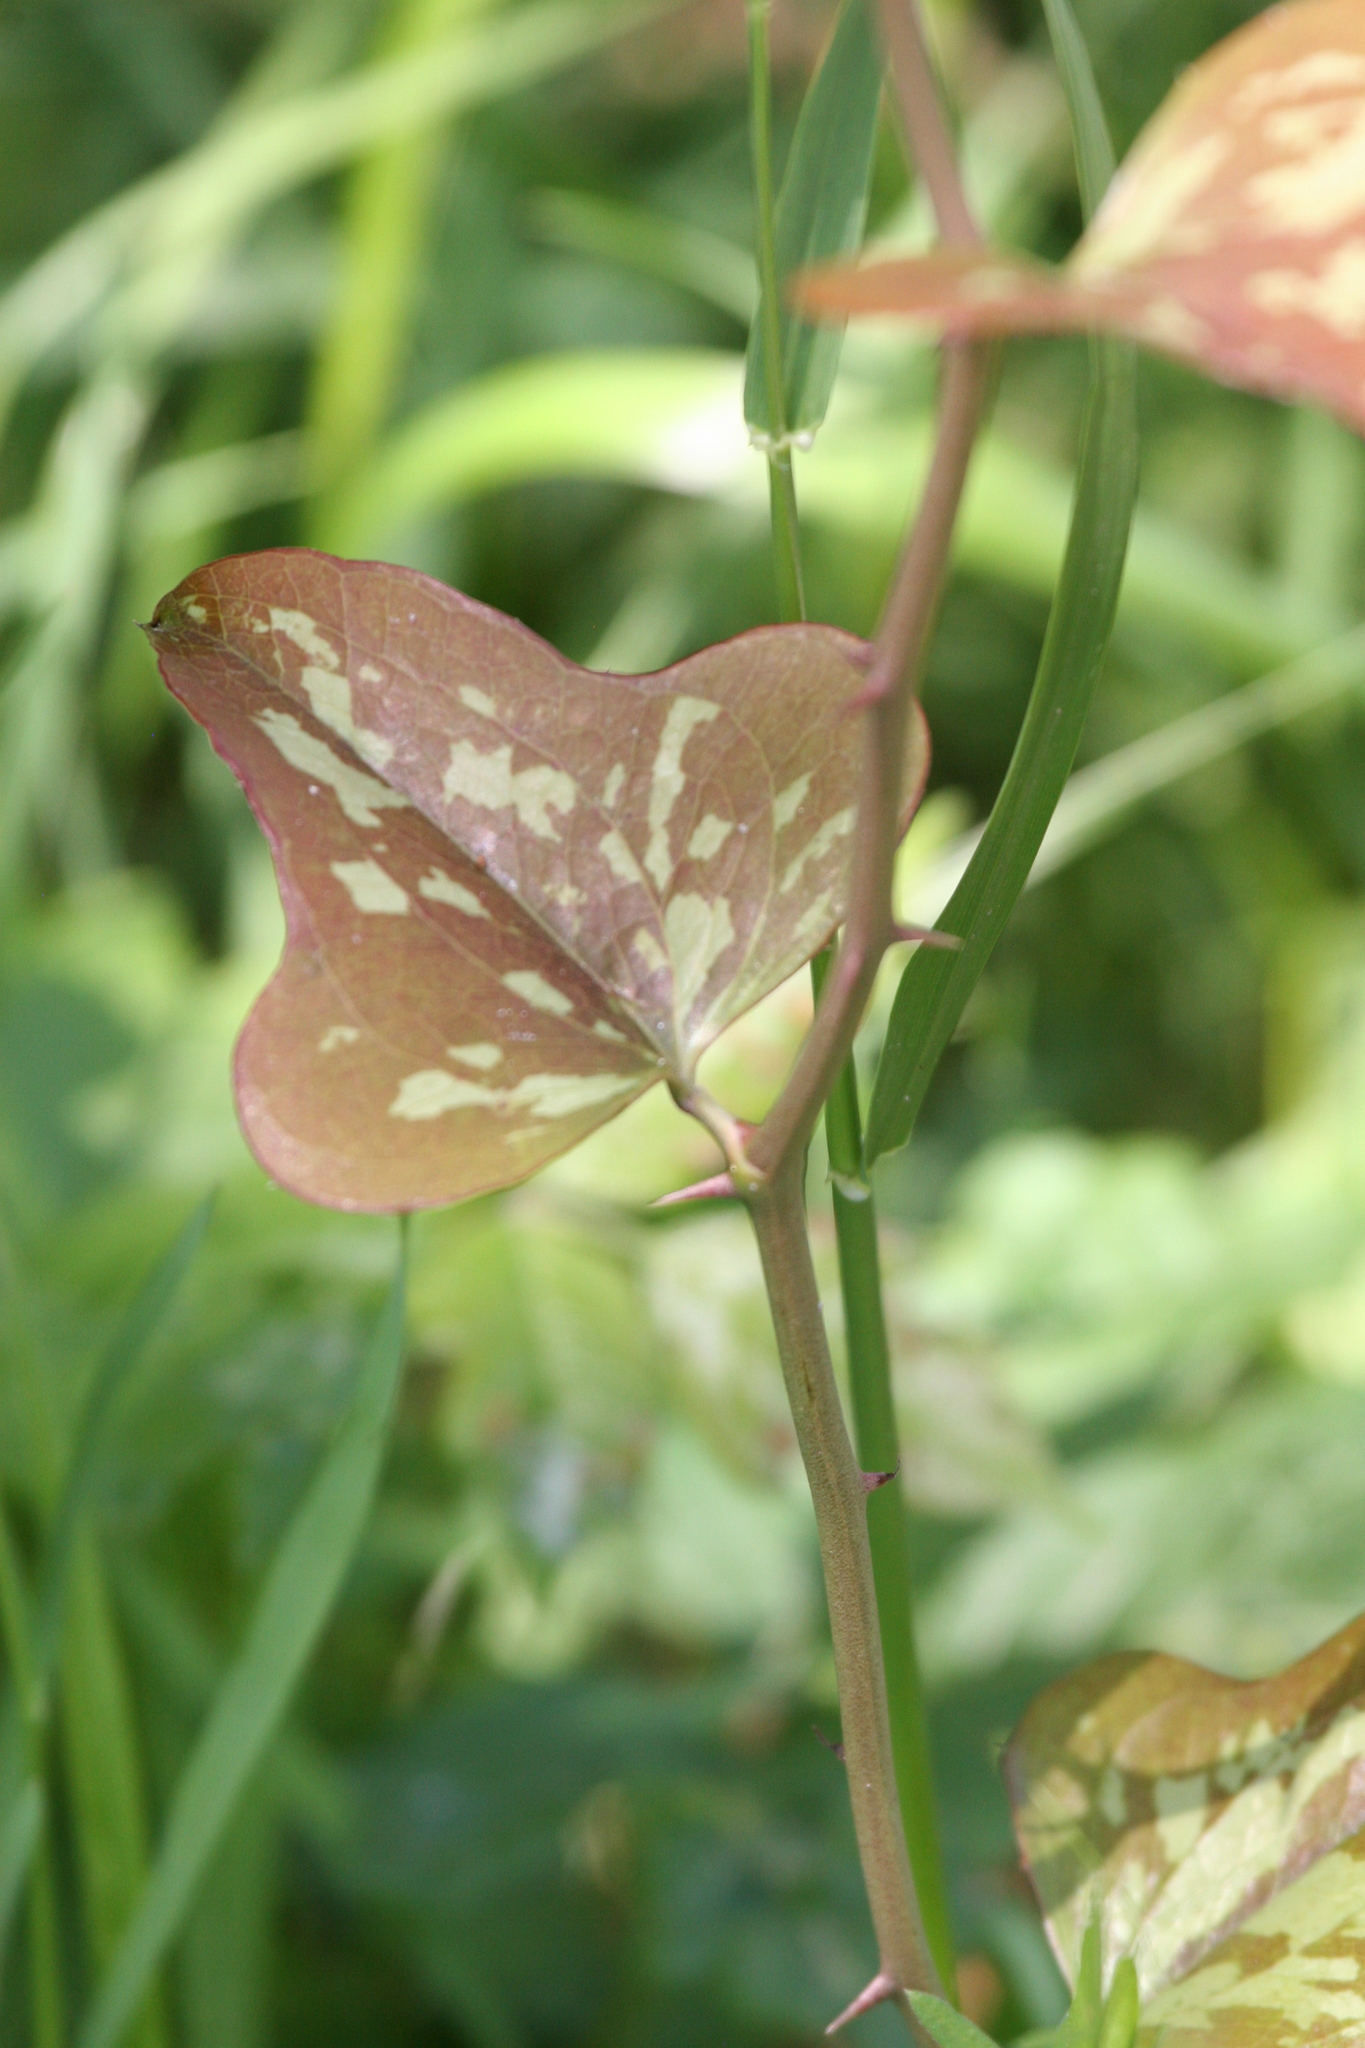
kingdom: Plantae
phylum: Tracheophyta
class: Liliopsida
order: Liliales
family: Smilacaceae
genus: Smilax
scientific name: Smilax bona-nox
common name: Catbrier
